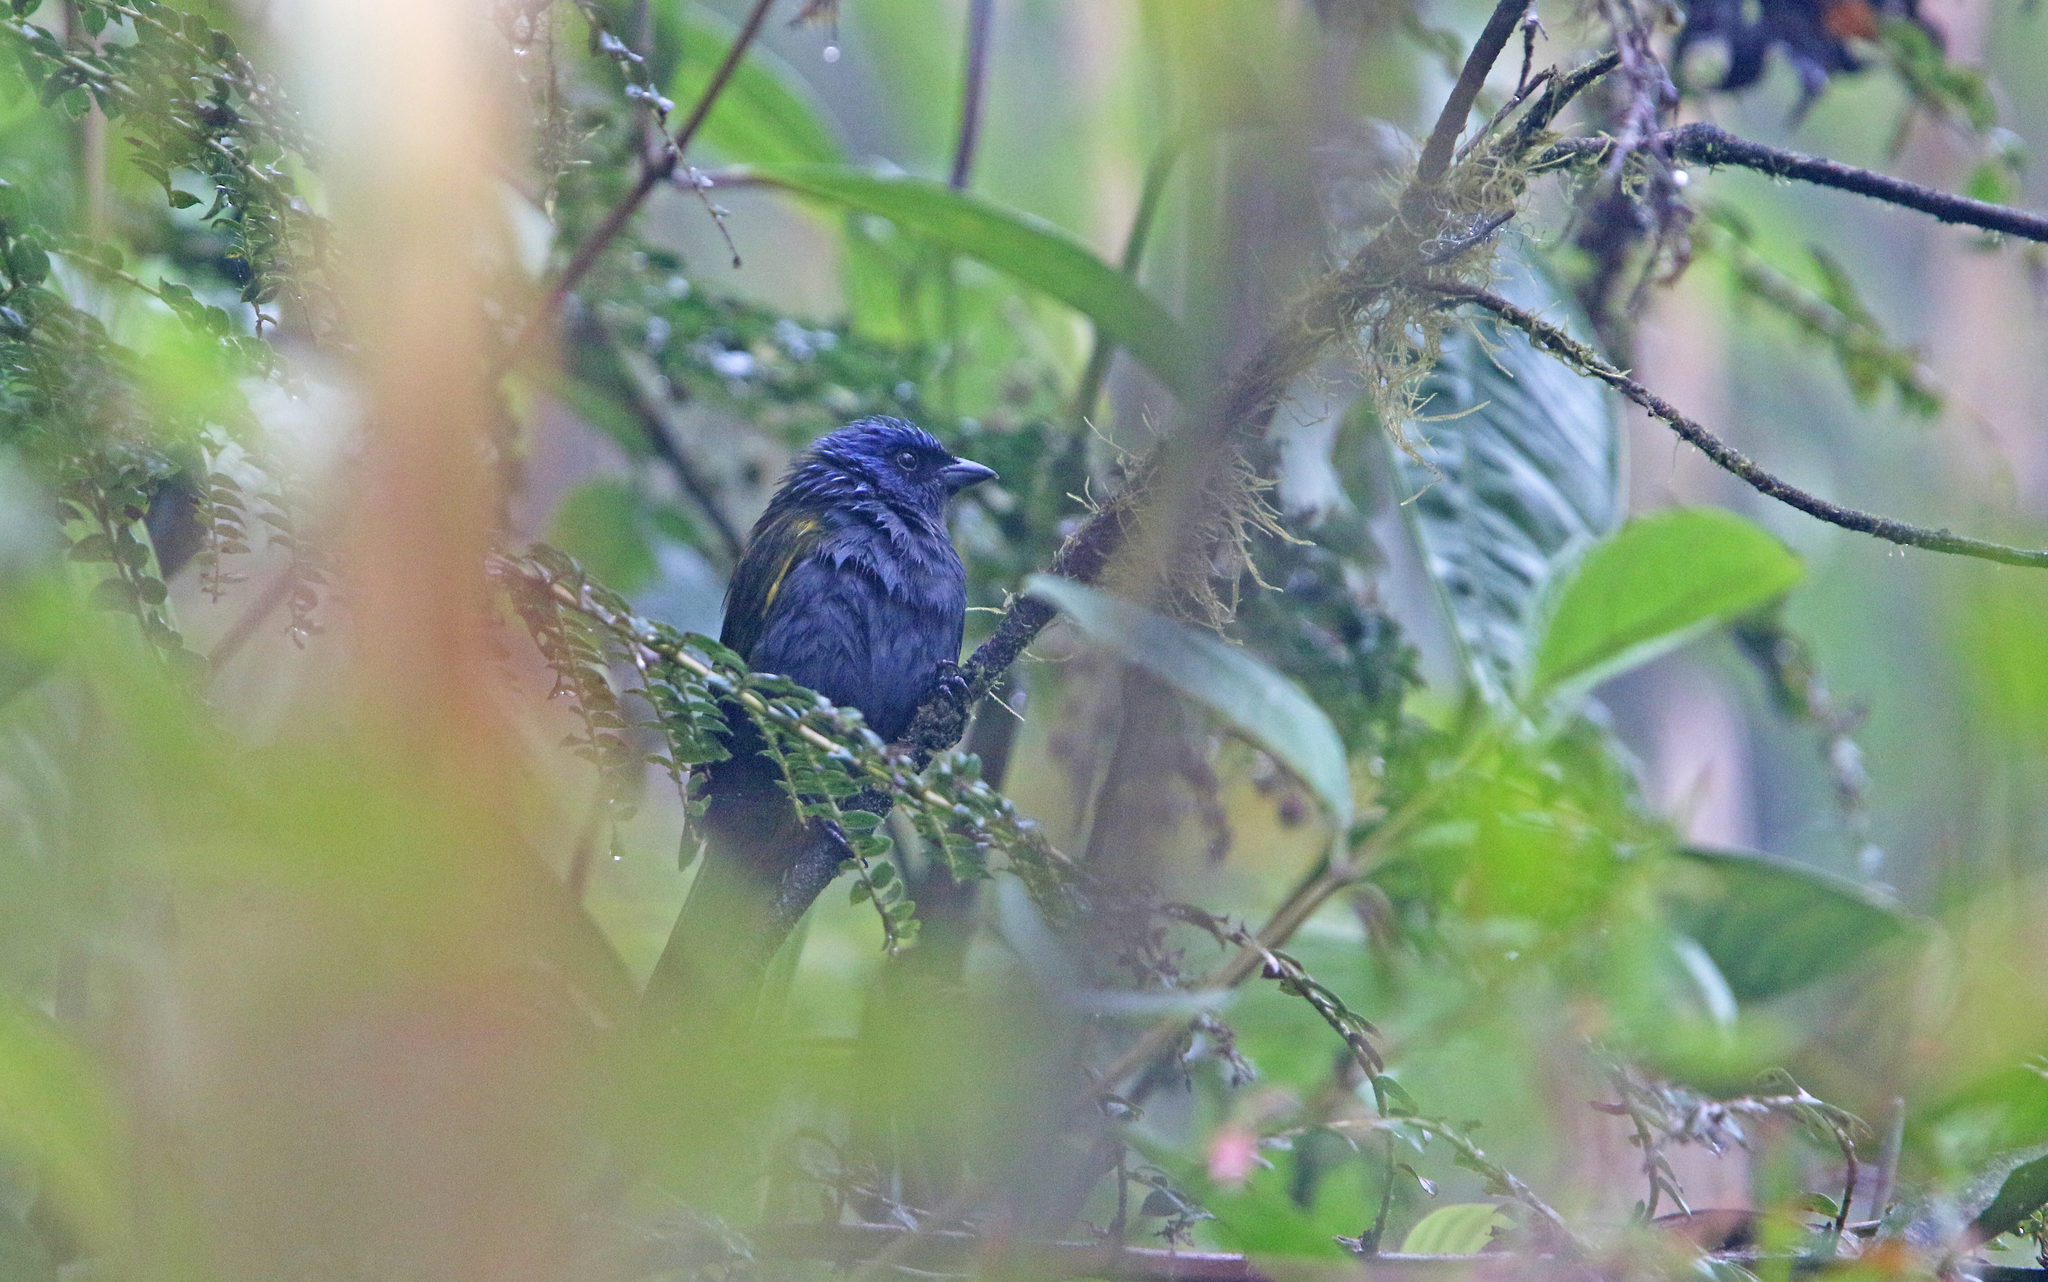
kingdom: Animalia
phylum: Chordata
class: Aves
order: Passeriformes
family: Thraupidae
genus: Sporathraupis
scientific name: Sporathraupis cyanocephala
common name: Blue-capped tanager
